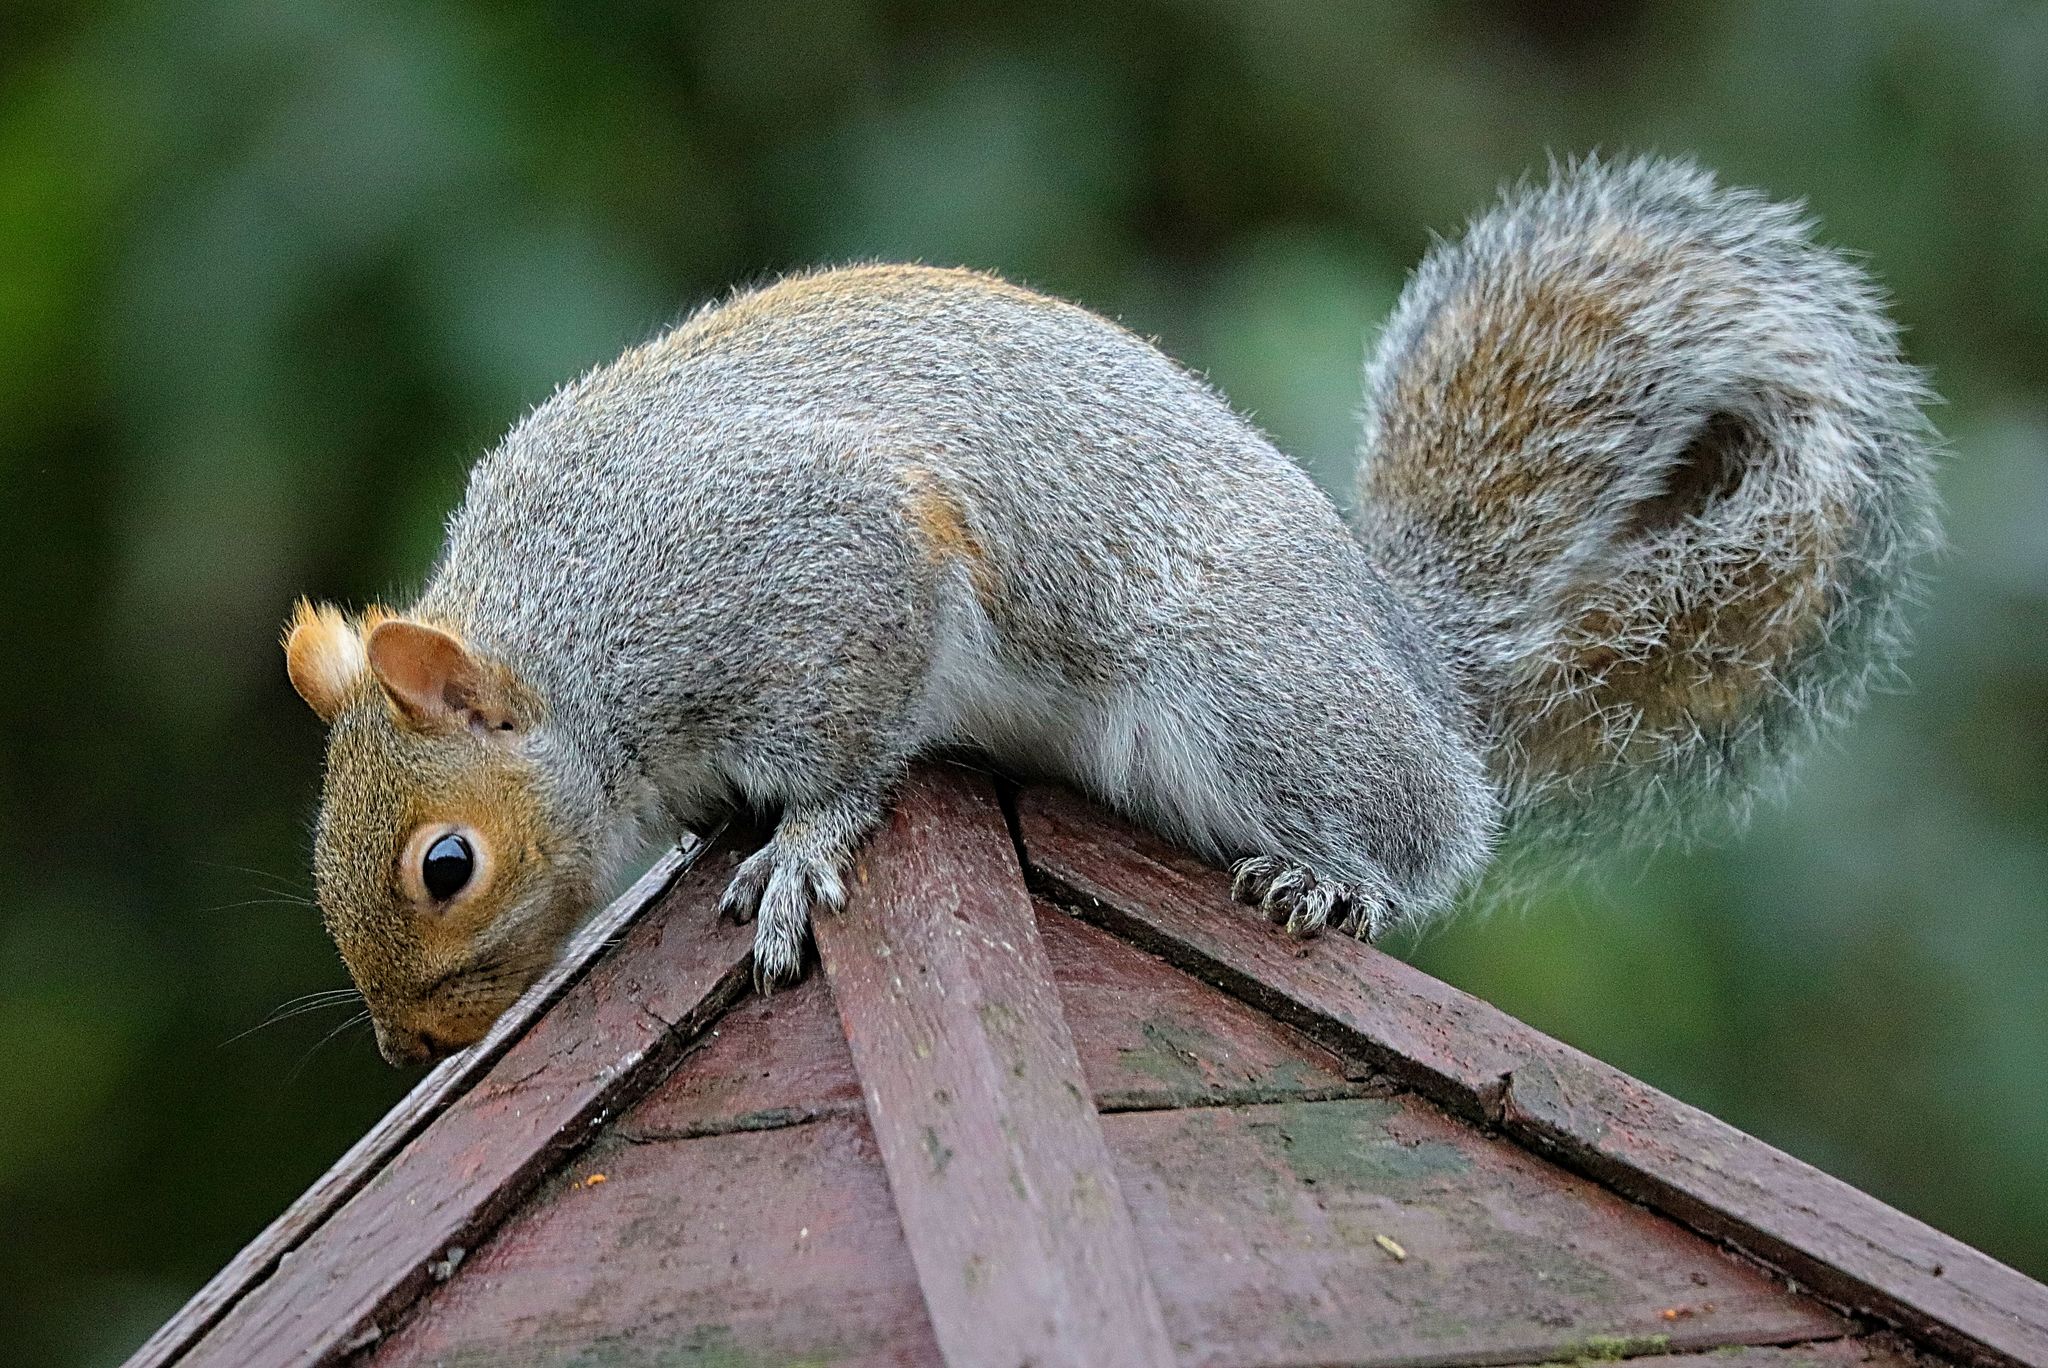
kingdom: Animalia
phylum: Chordata
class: Mammalia
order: Rodentia
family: Sciuridae
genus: Sciurus
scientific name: Sciurus carolinensis
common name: Eastern gray squirrel
